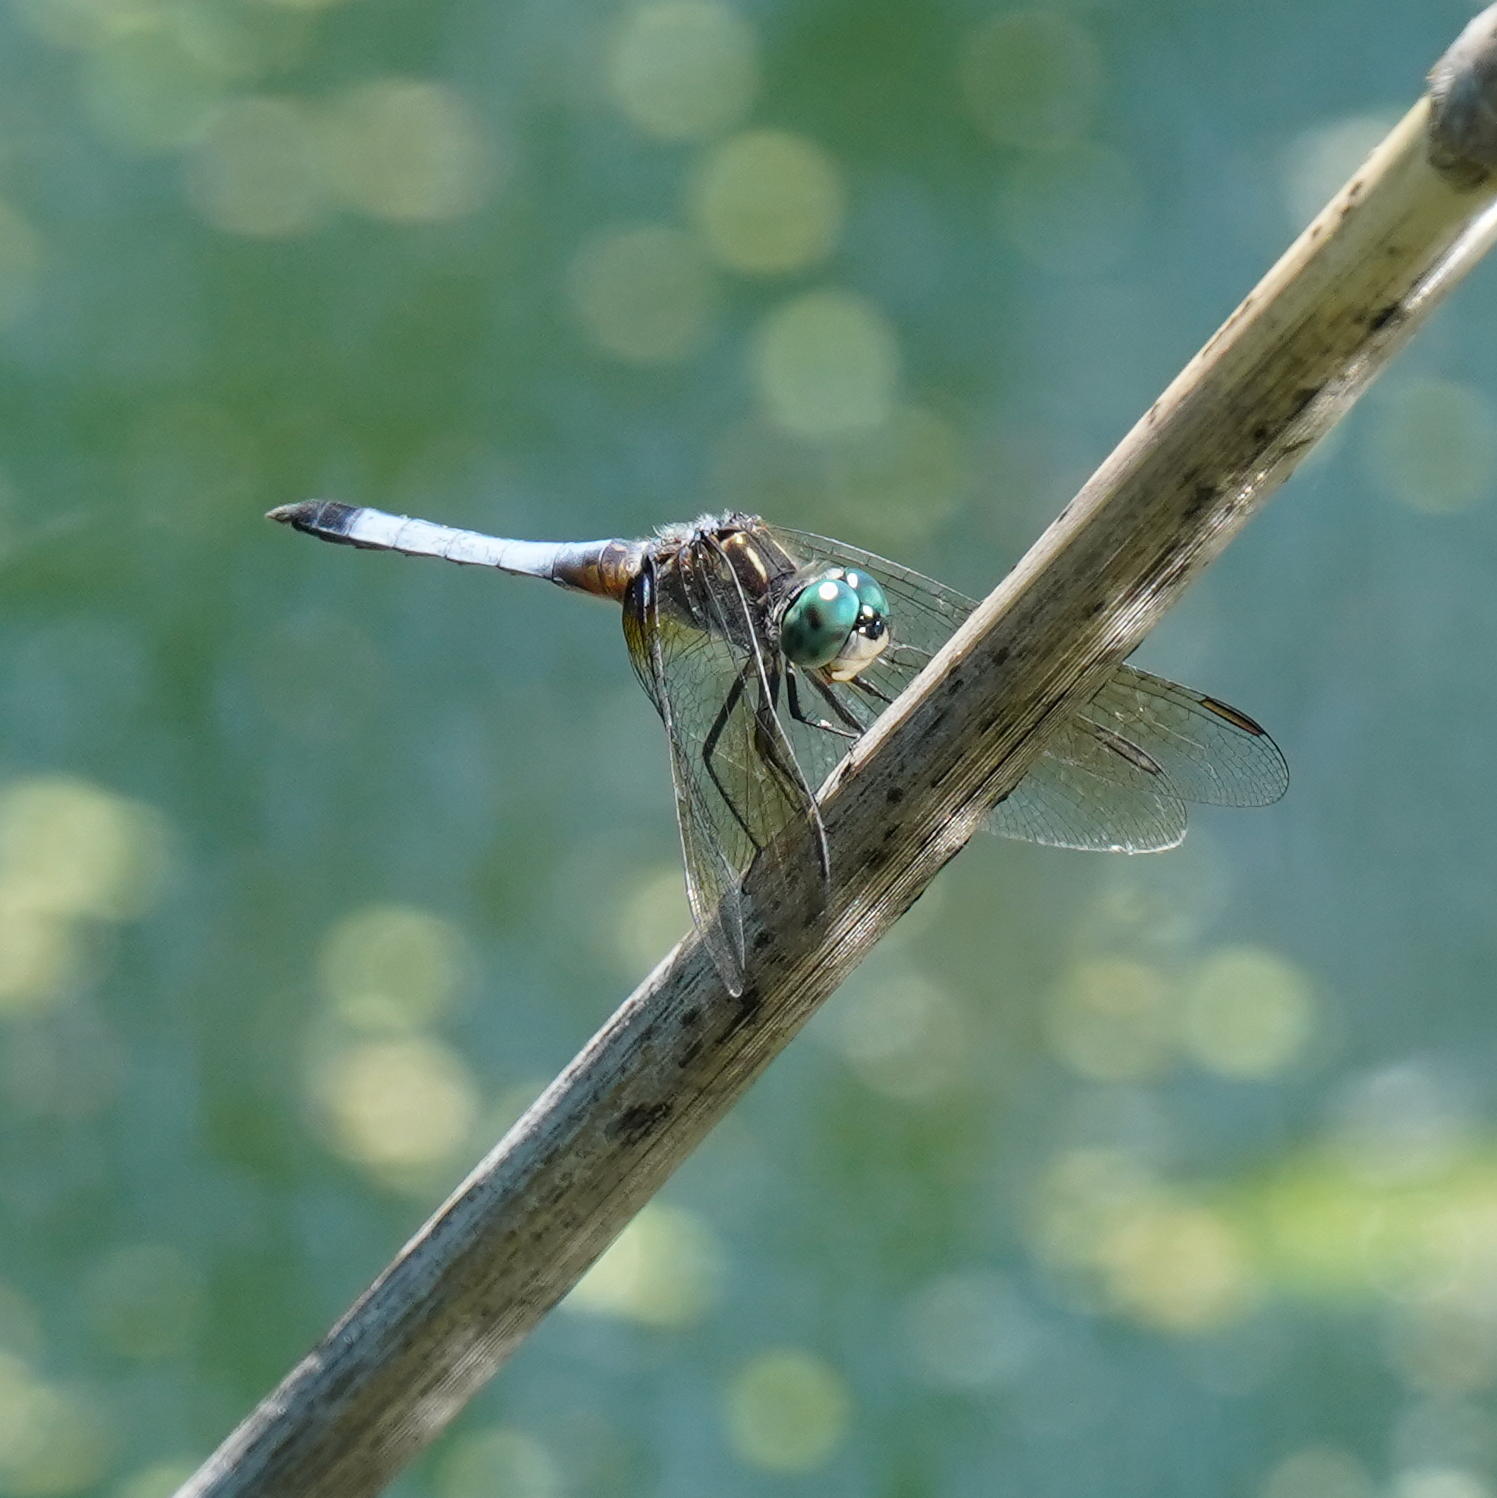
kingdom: Animalia
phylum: Arthropoda
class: Insecta
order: Odonata
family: Libellulidae
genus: Pachydiplax
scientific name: Pachydiplax longipennis
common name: Blue dasher
